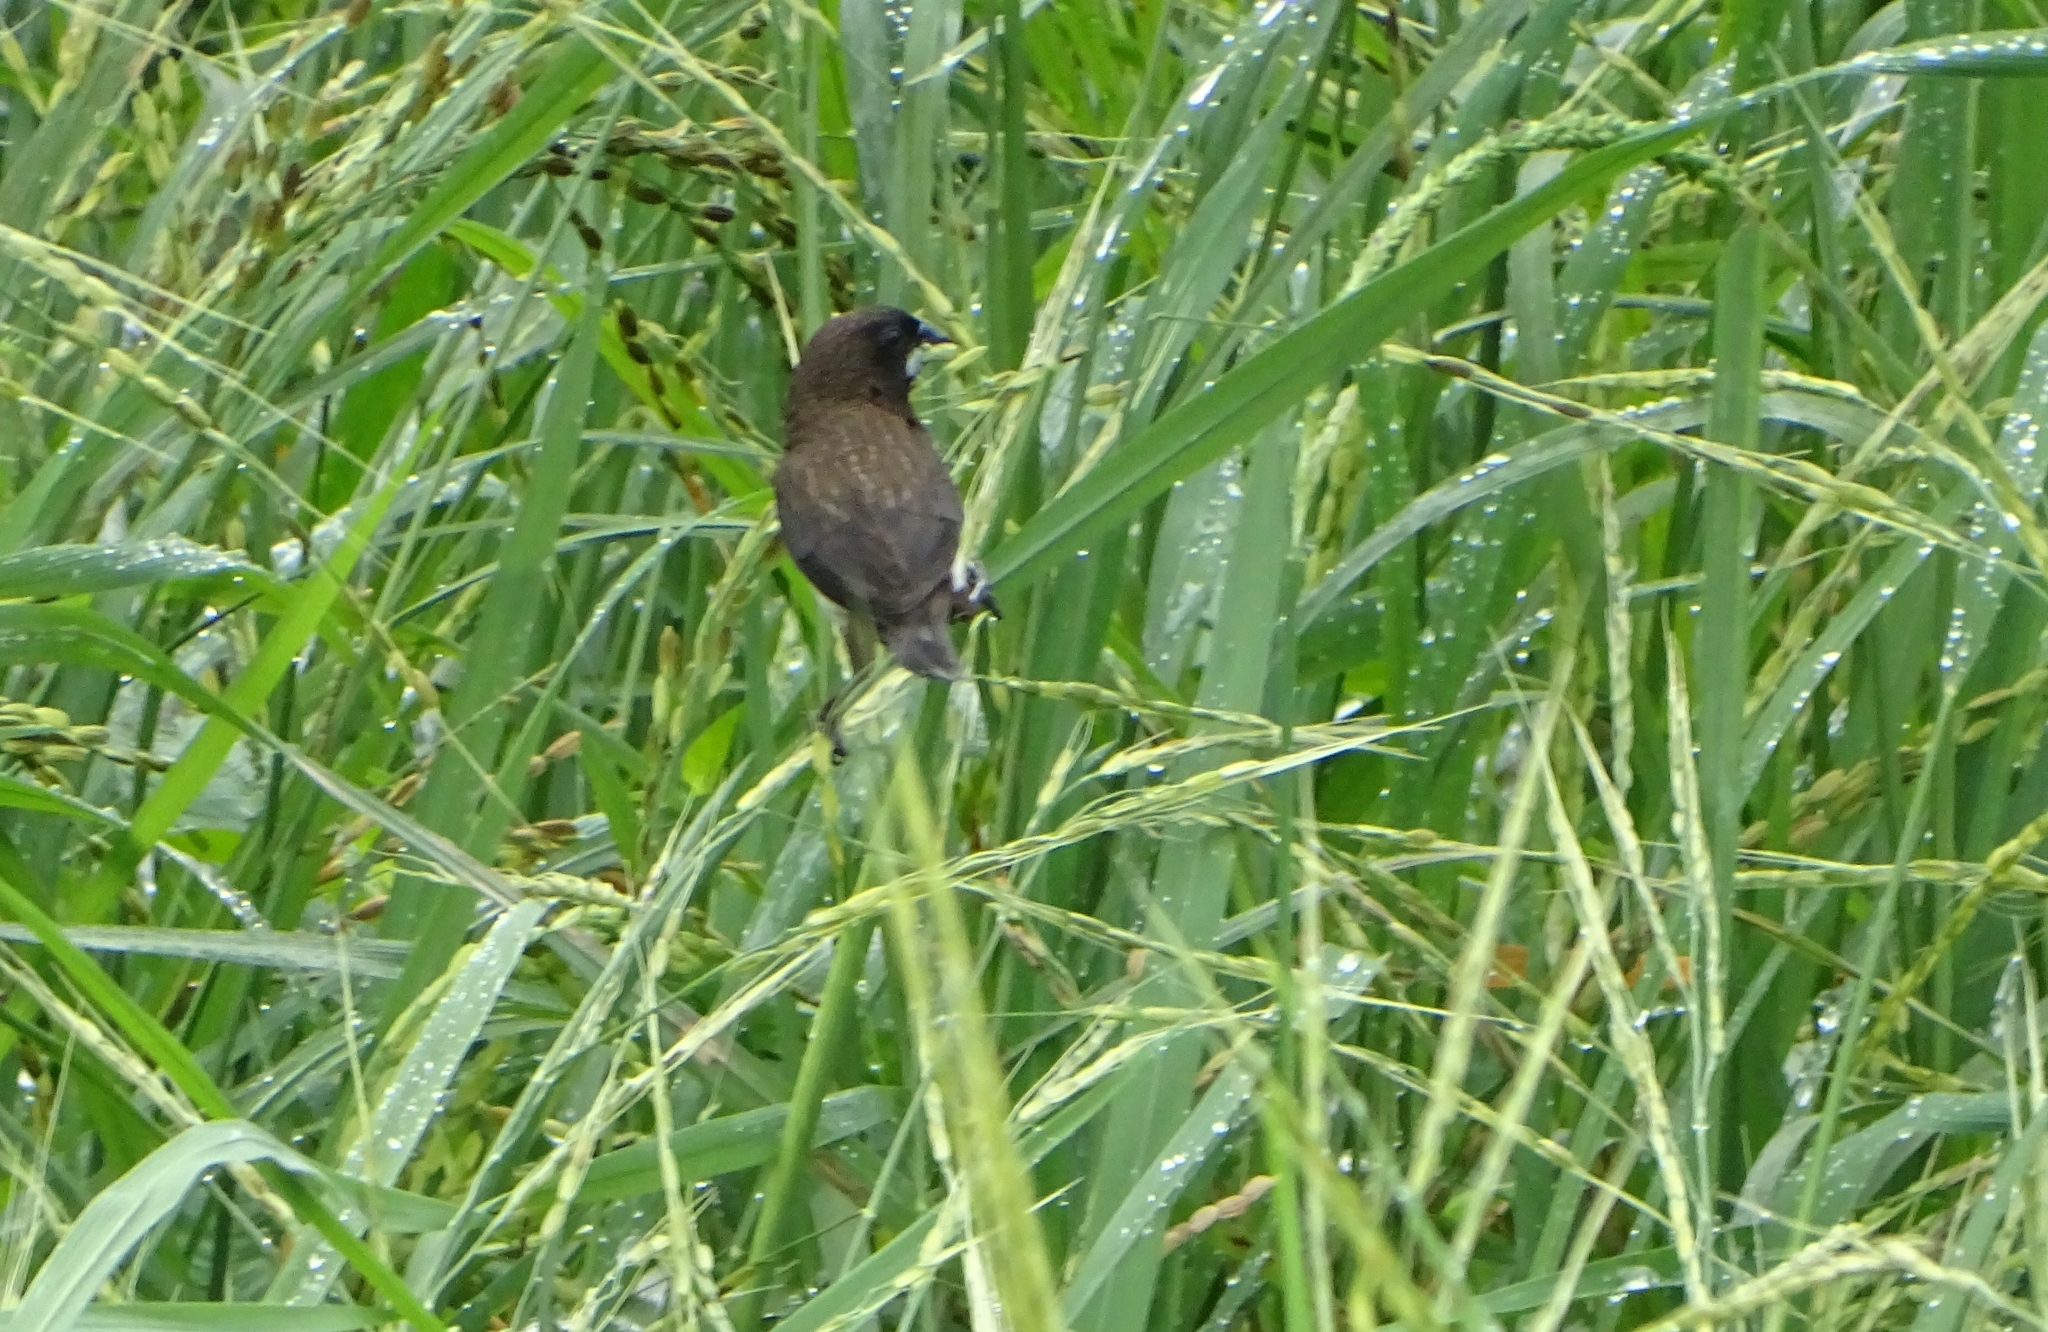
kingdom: Animalia
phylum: Chordata
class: Aves
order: Passeriformes
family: Estrildidae
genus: Lonchura
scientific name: Lonchura striata
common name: White-rumped munia
